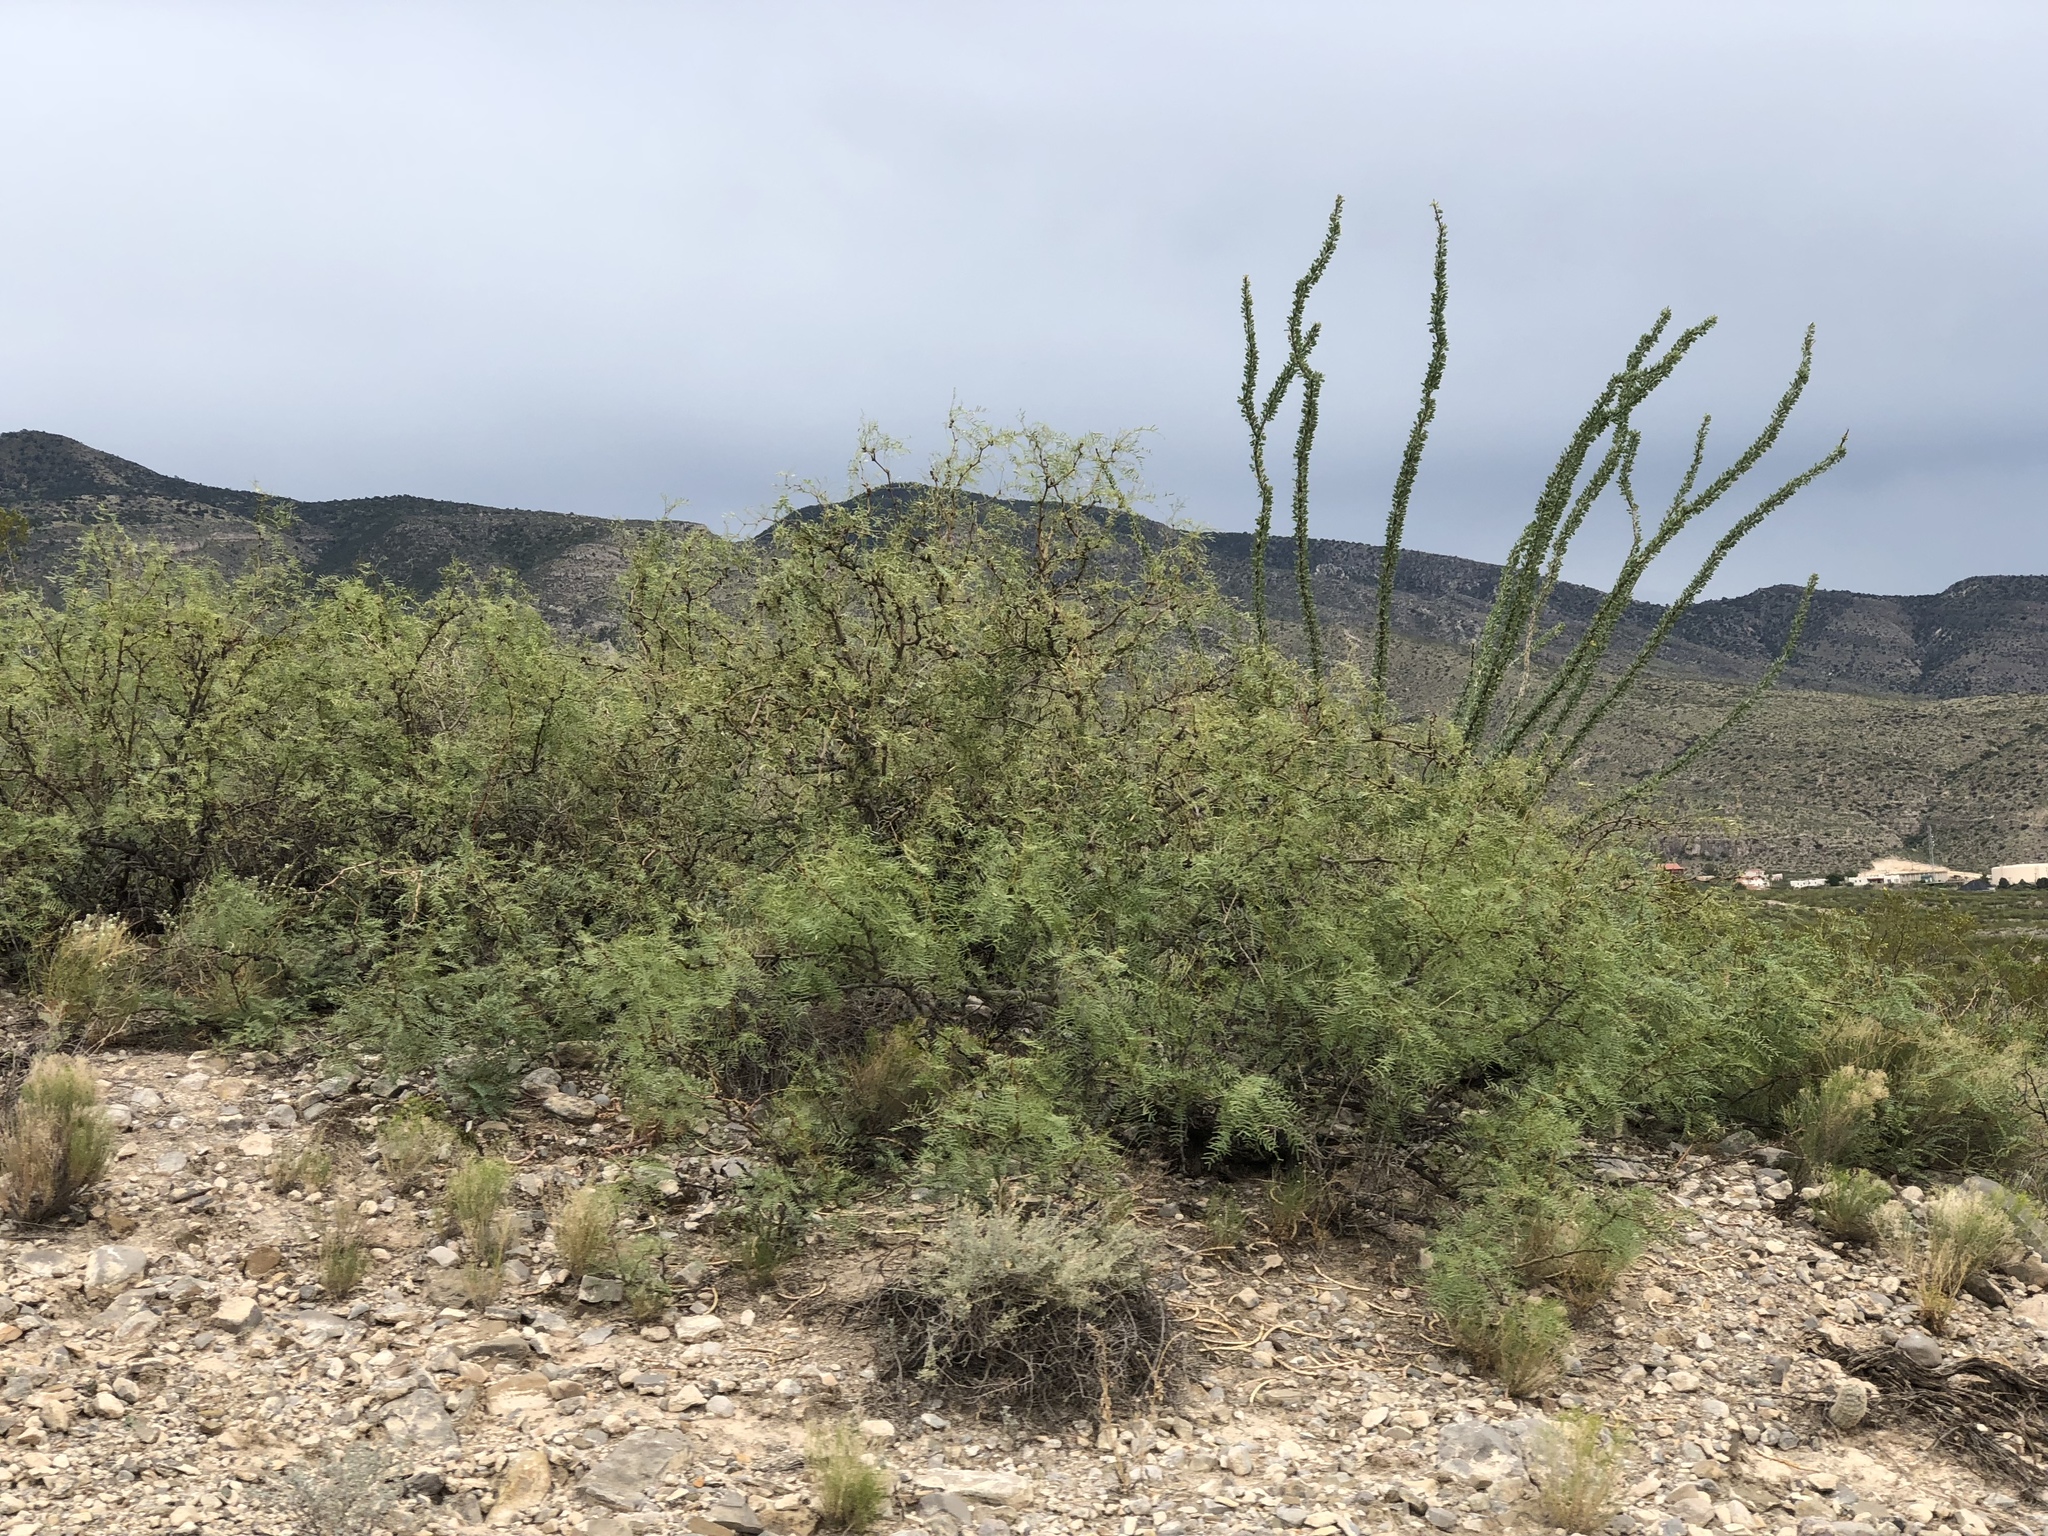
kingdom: Plantae
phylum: Tracheophyta
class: Magnoliopsida
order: Fabales
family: Fabaceae
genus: Prosopis
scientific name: Prosopis glandulosa
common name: Honey mesquite
